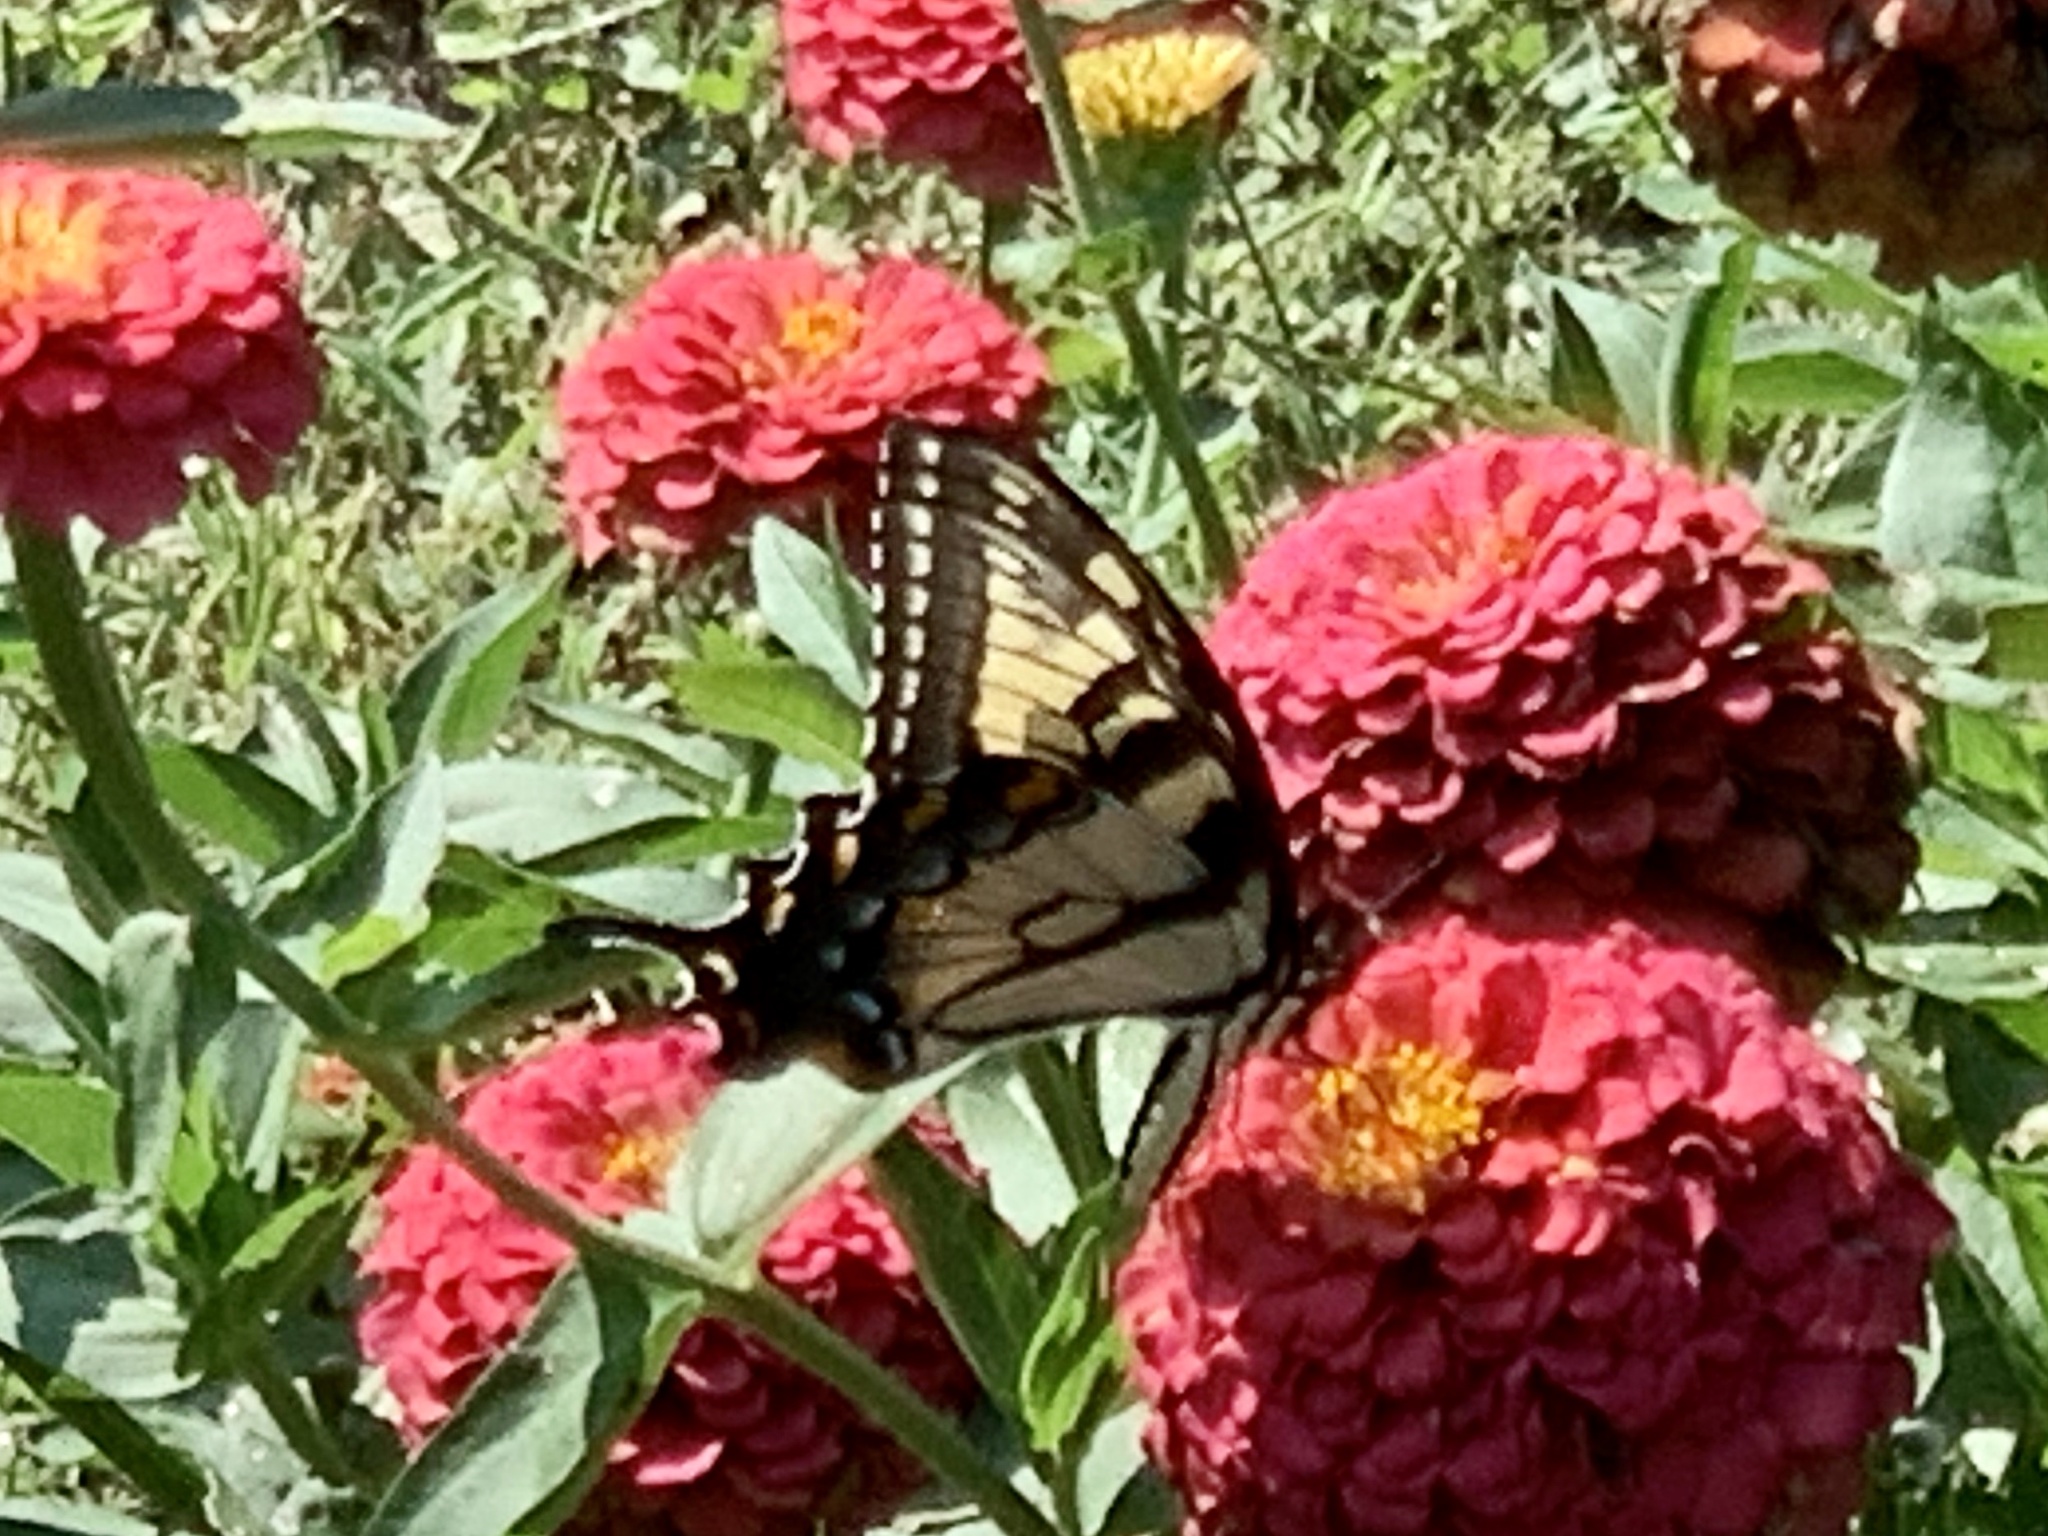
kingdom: Animalia
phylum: Arthropoda
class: Insecta
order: Lepidoptera
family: Papilionidae
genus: Papilio
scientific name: Papilio glaucus
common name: Tiger swallowtail
